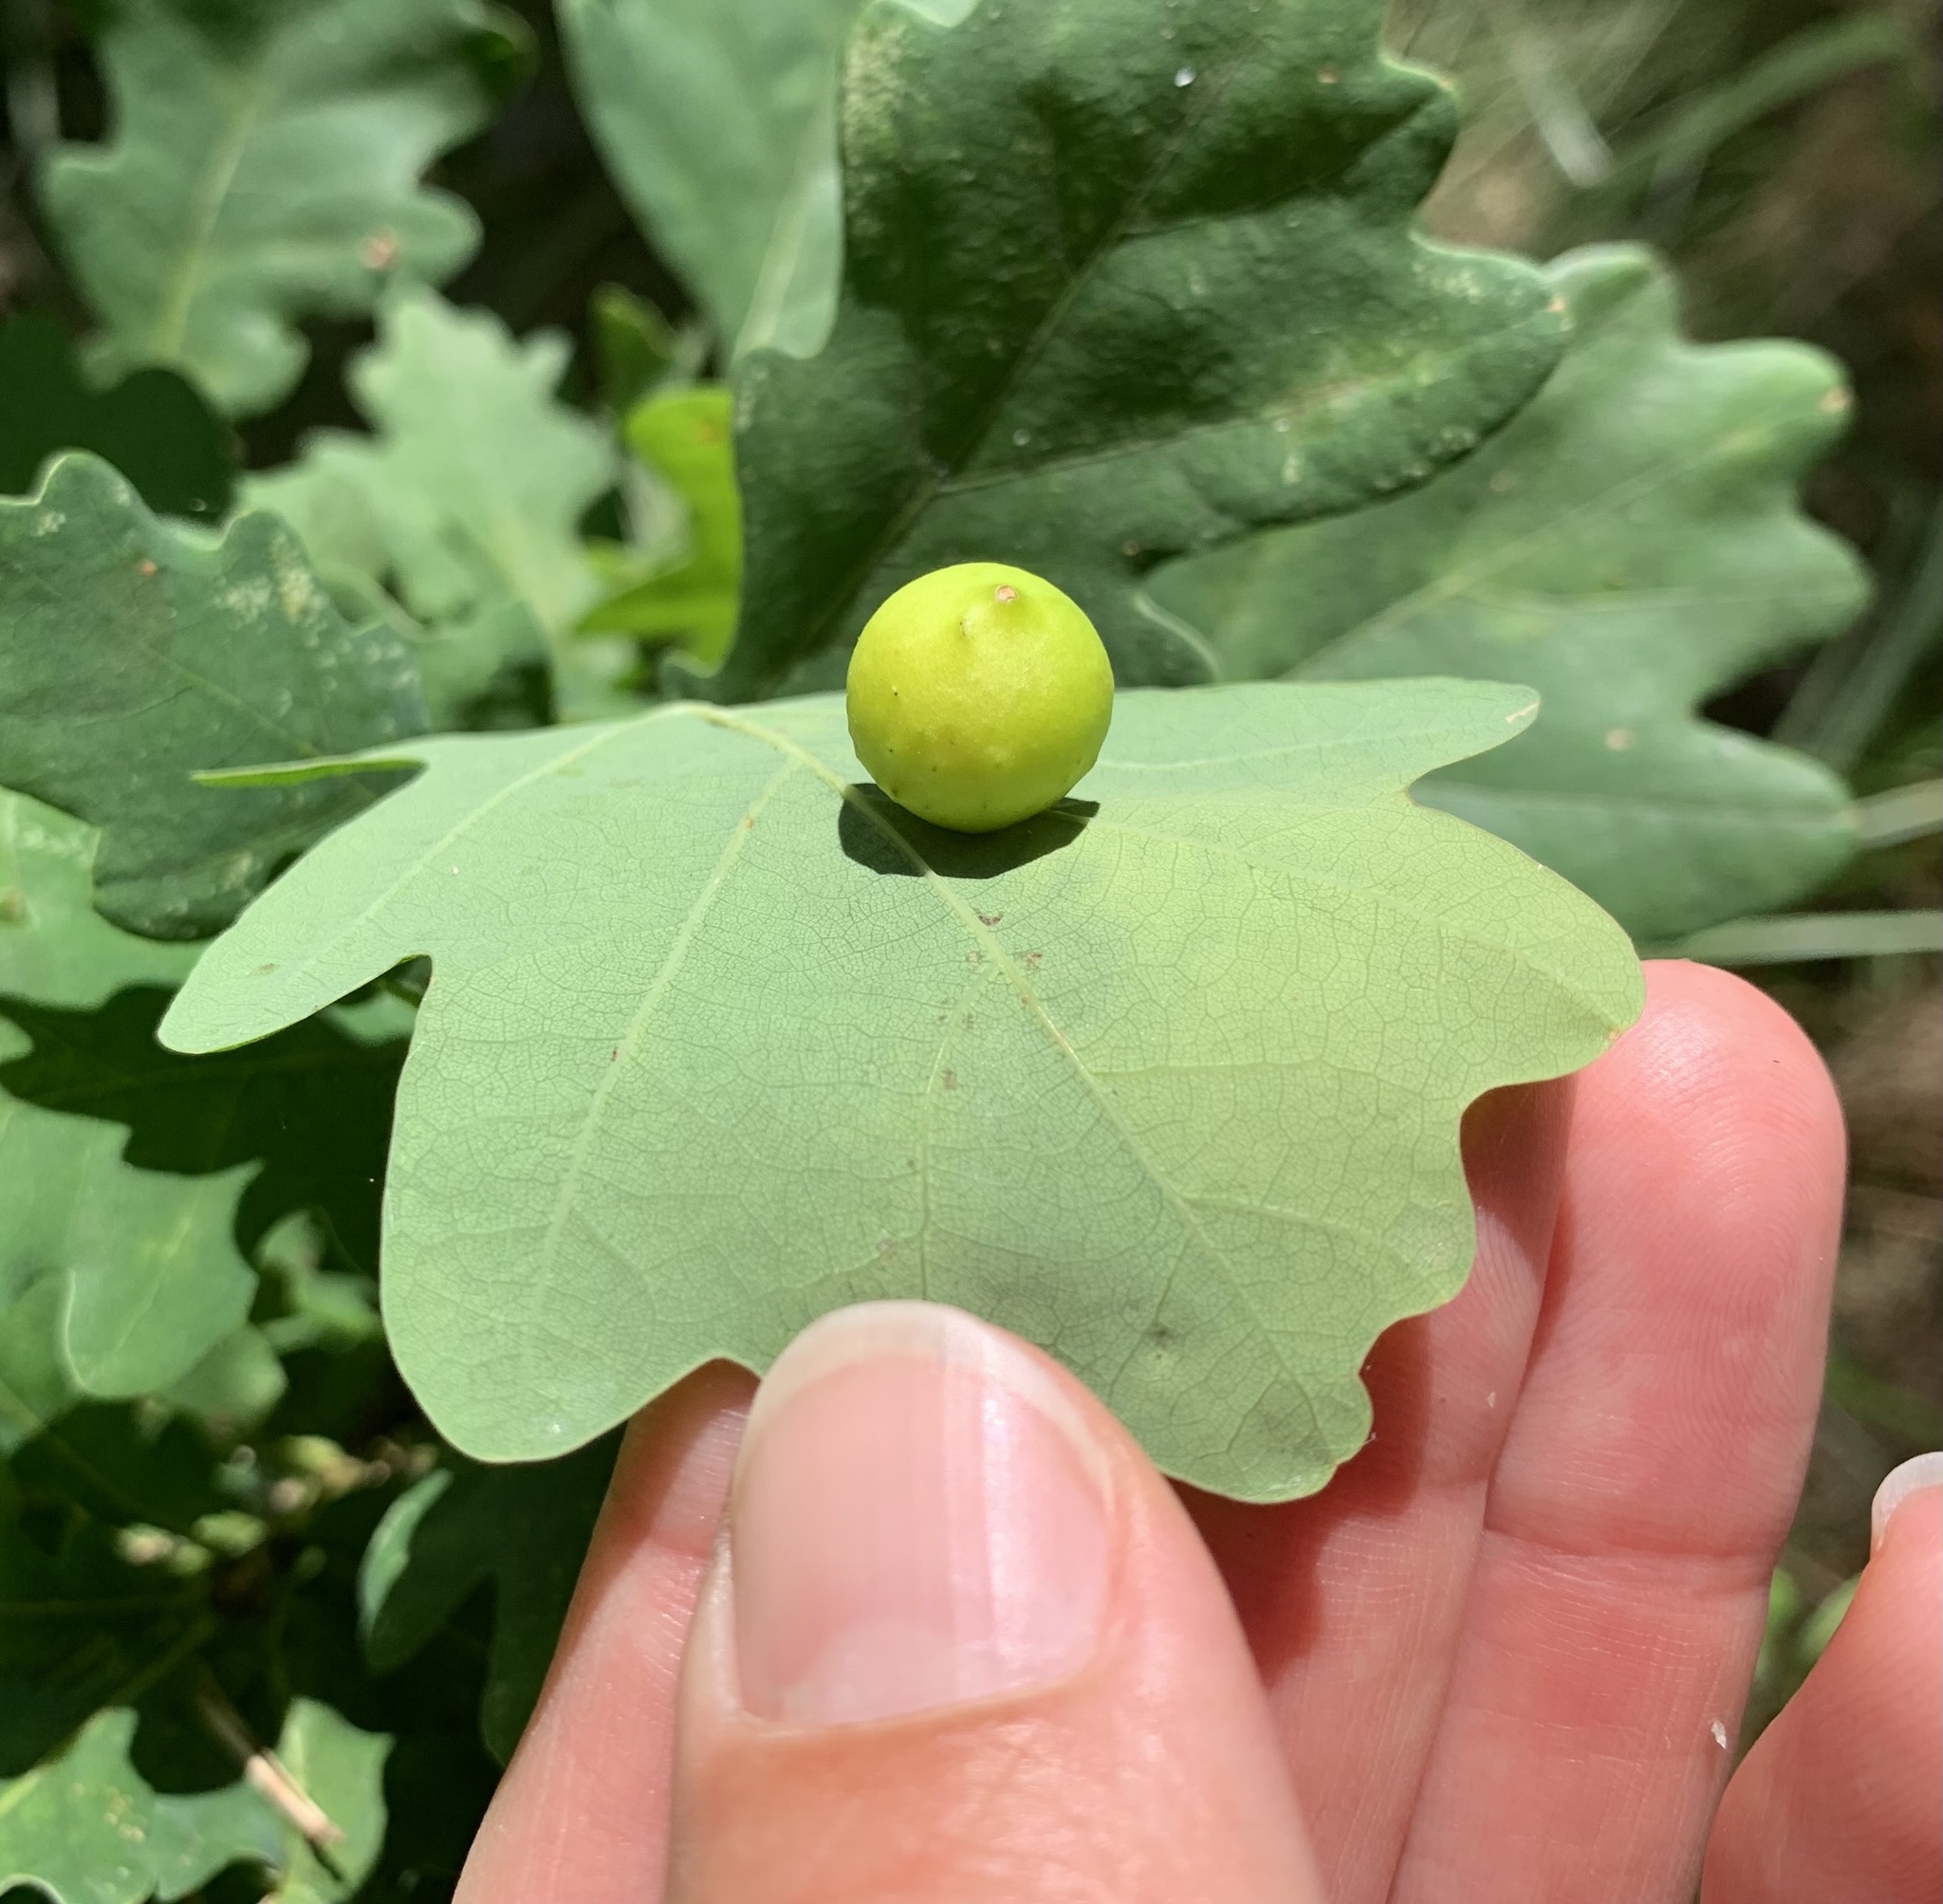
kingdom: Animalia
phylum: Arthropoda
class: Insecta
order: Hymenoptera
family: Cynipidae
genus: Cynips
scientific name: Cynips quercusfolii
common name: Cherry gall
